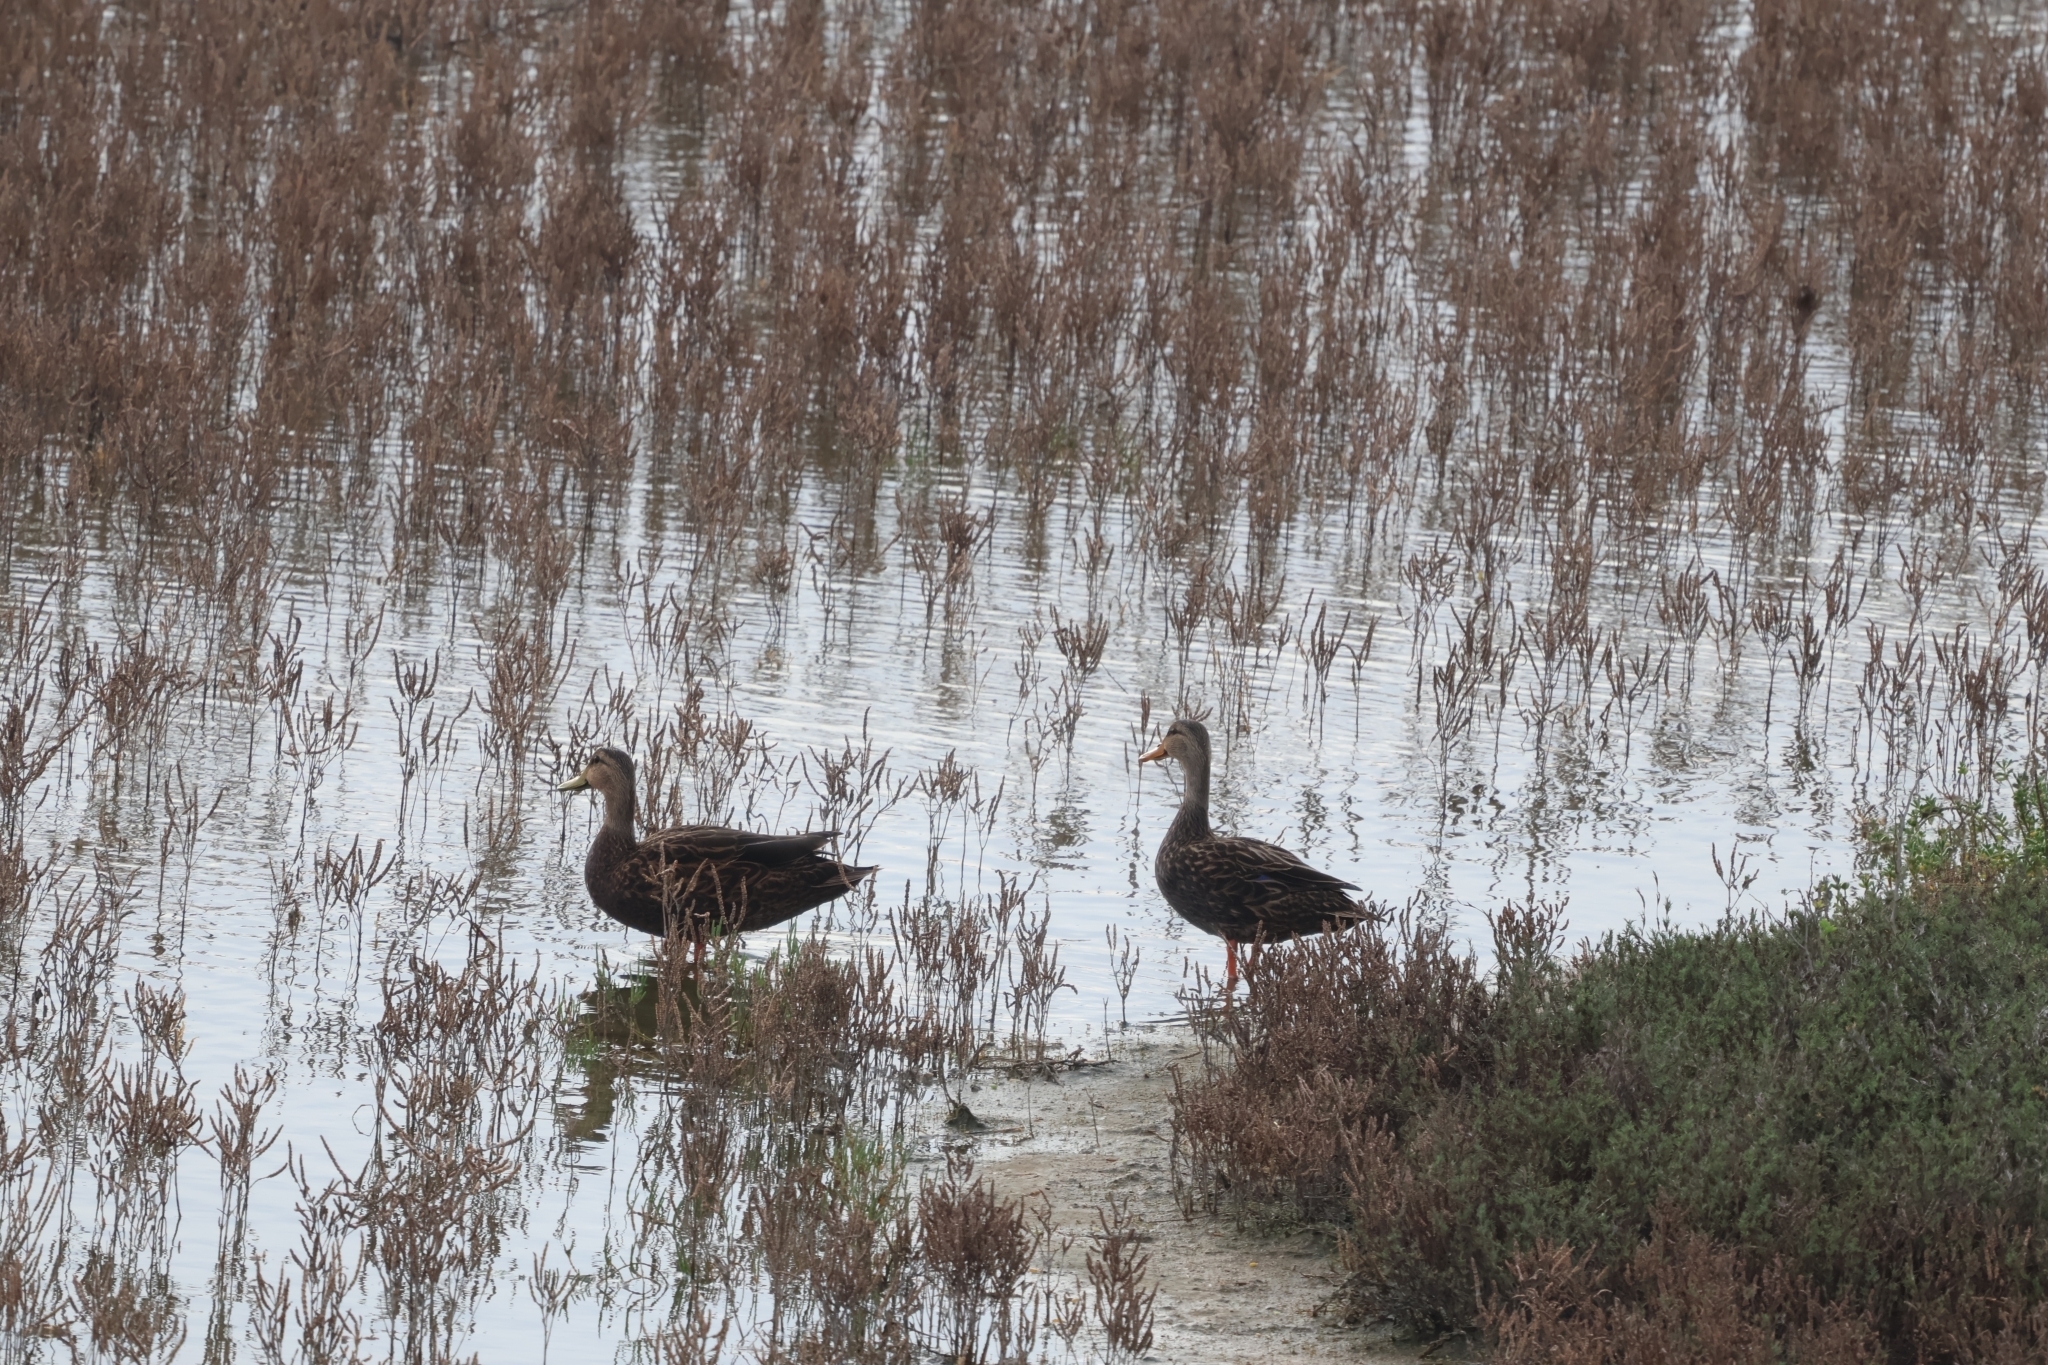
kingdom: Animalia
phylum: Chordata
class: Aves
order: Anseriformes
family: Anatidae
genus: Anas
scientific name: Anas fulvigula
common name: Mottled duck
